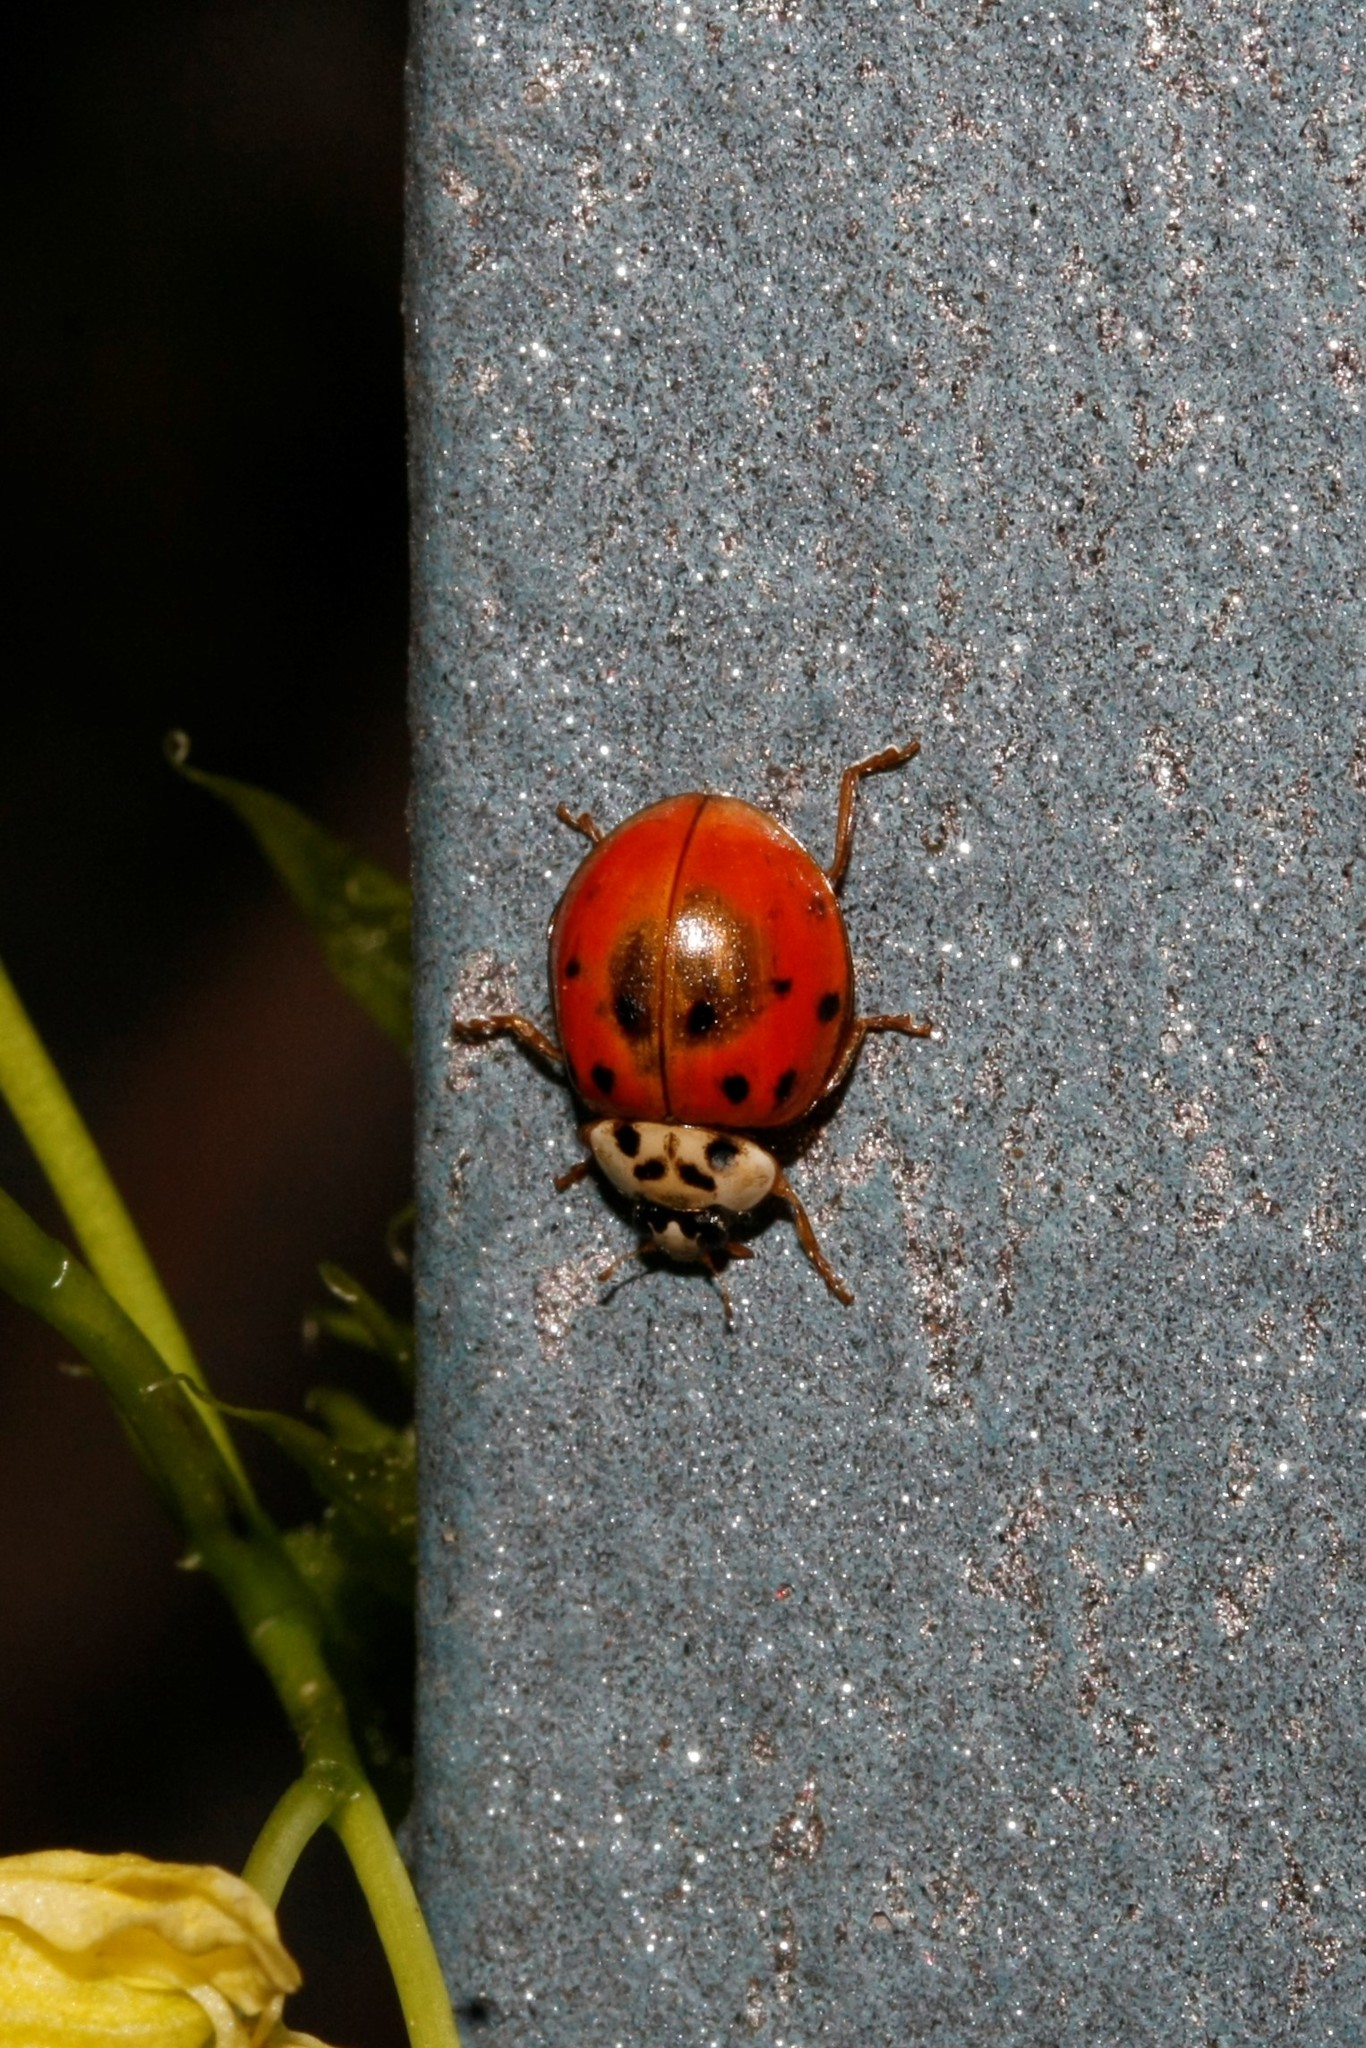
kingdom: Animalia
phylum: Arthropoda
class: Insecta
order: Coleoptera
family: Coccinellidae
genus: Harmonia
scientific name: Harmonia axyridis
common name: Harlequin ladybird
